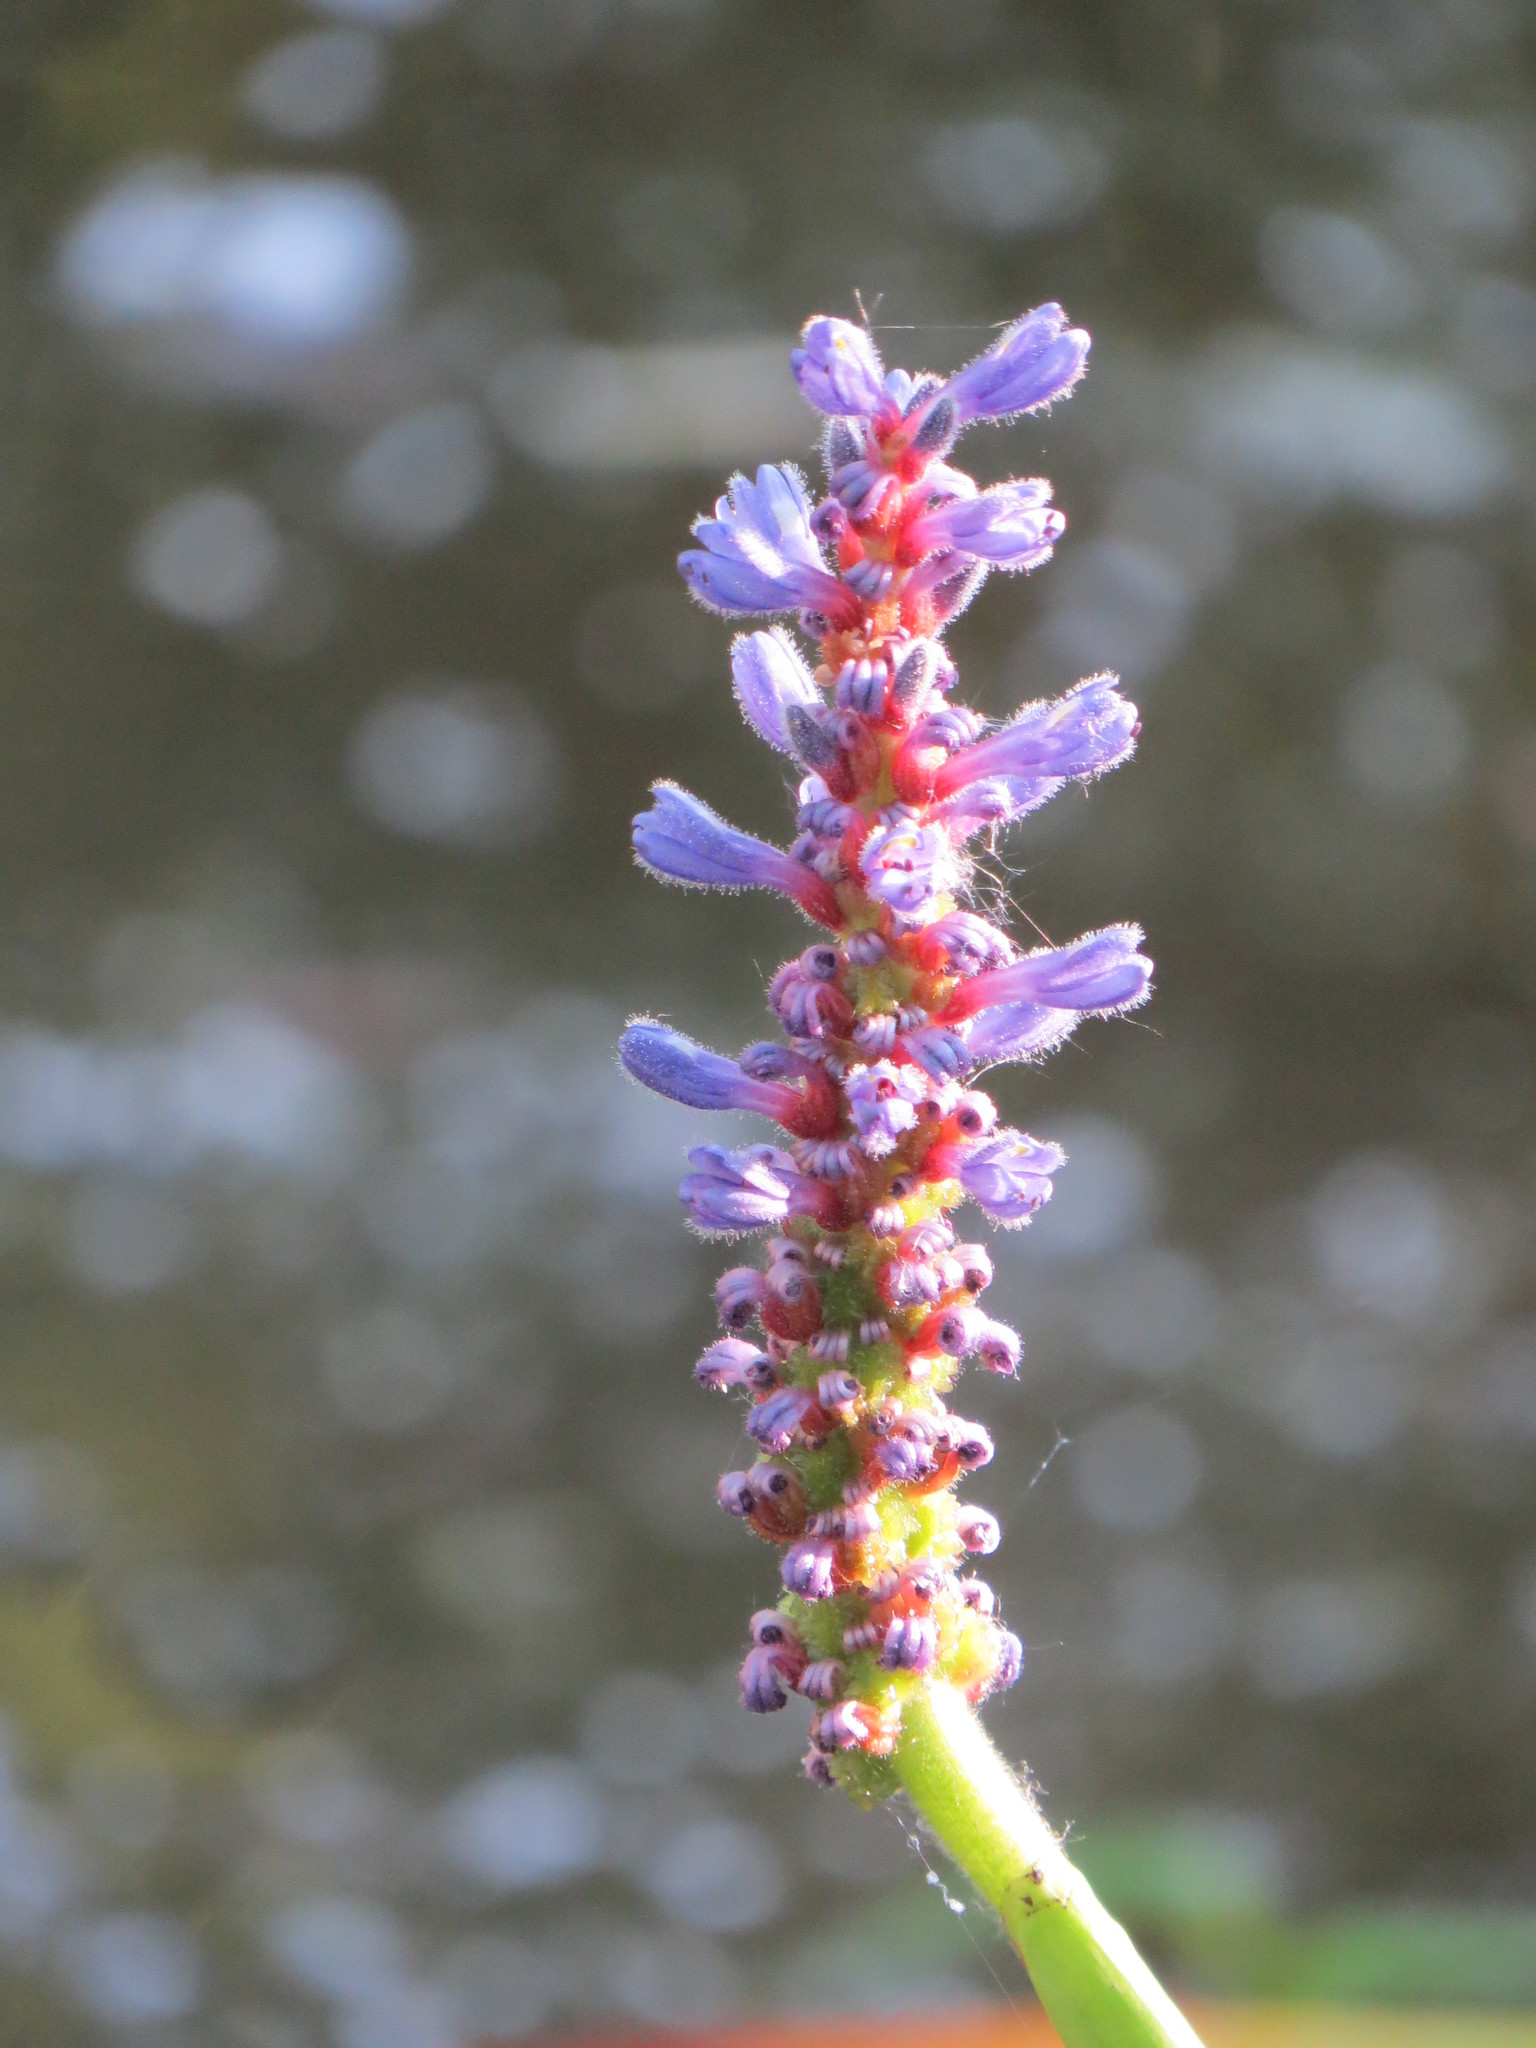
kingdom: Plantae
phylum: Tracheophyta
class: Liliopsida
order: Commelinales
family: Pontederiaceae
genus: Pontederia
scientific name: Pontederia cordata
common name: Pickerelweed
